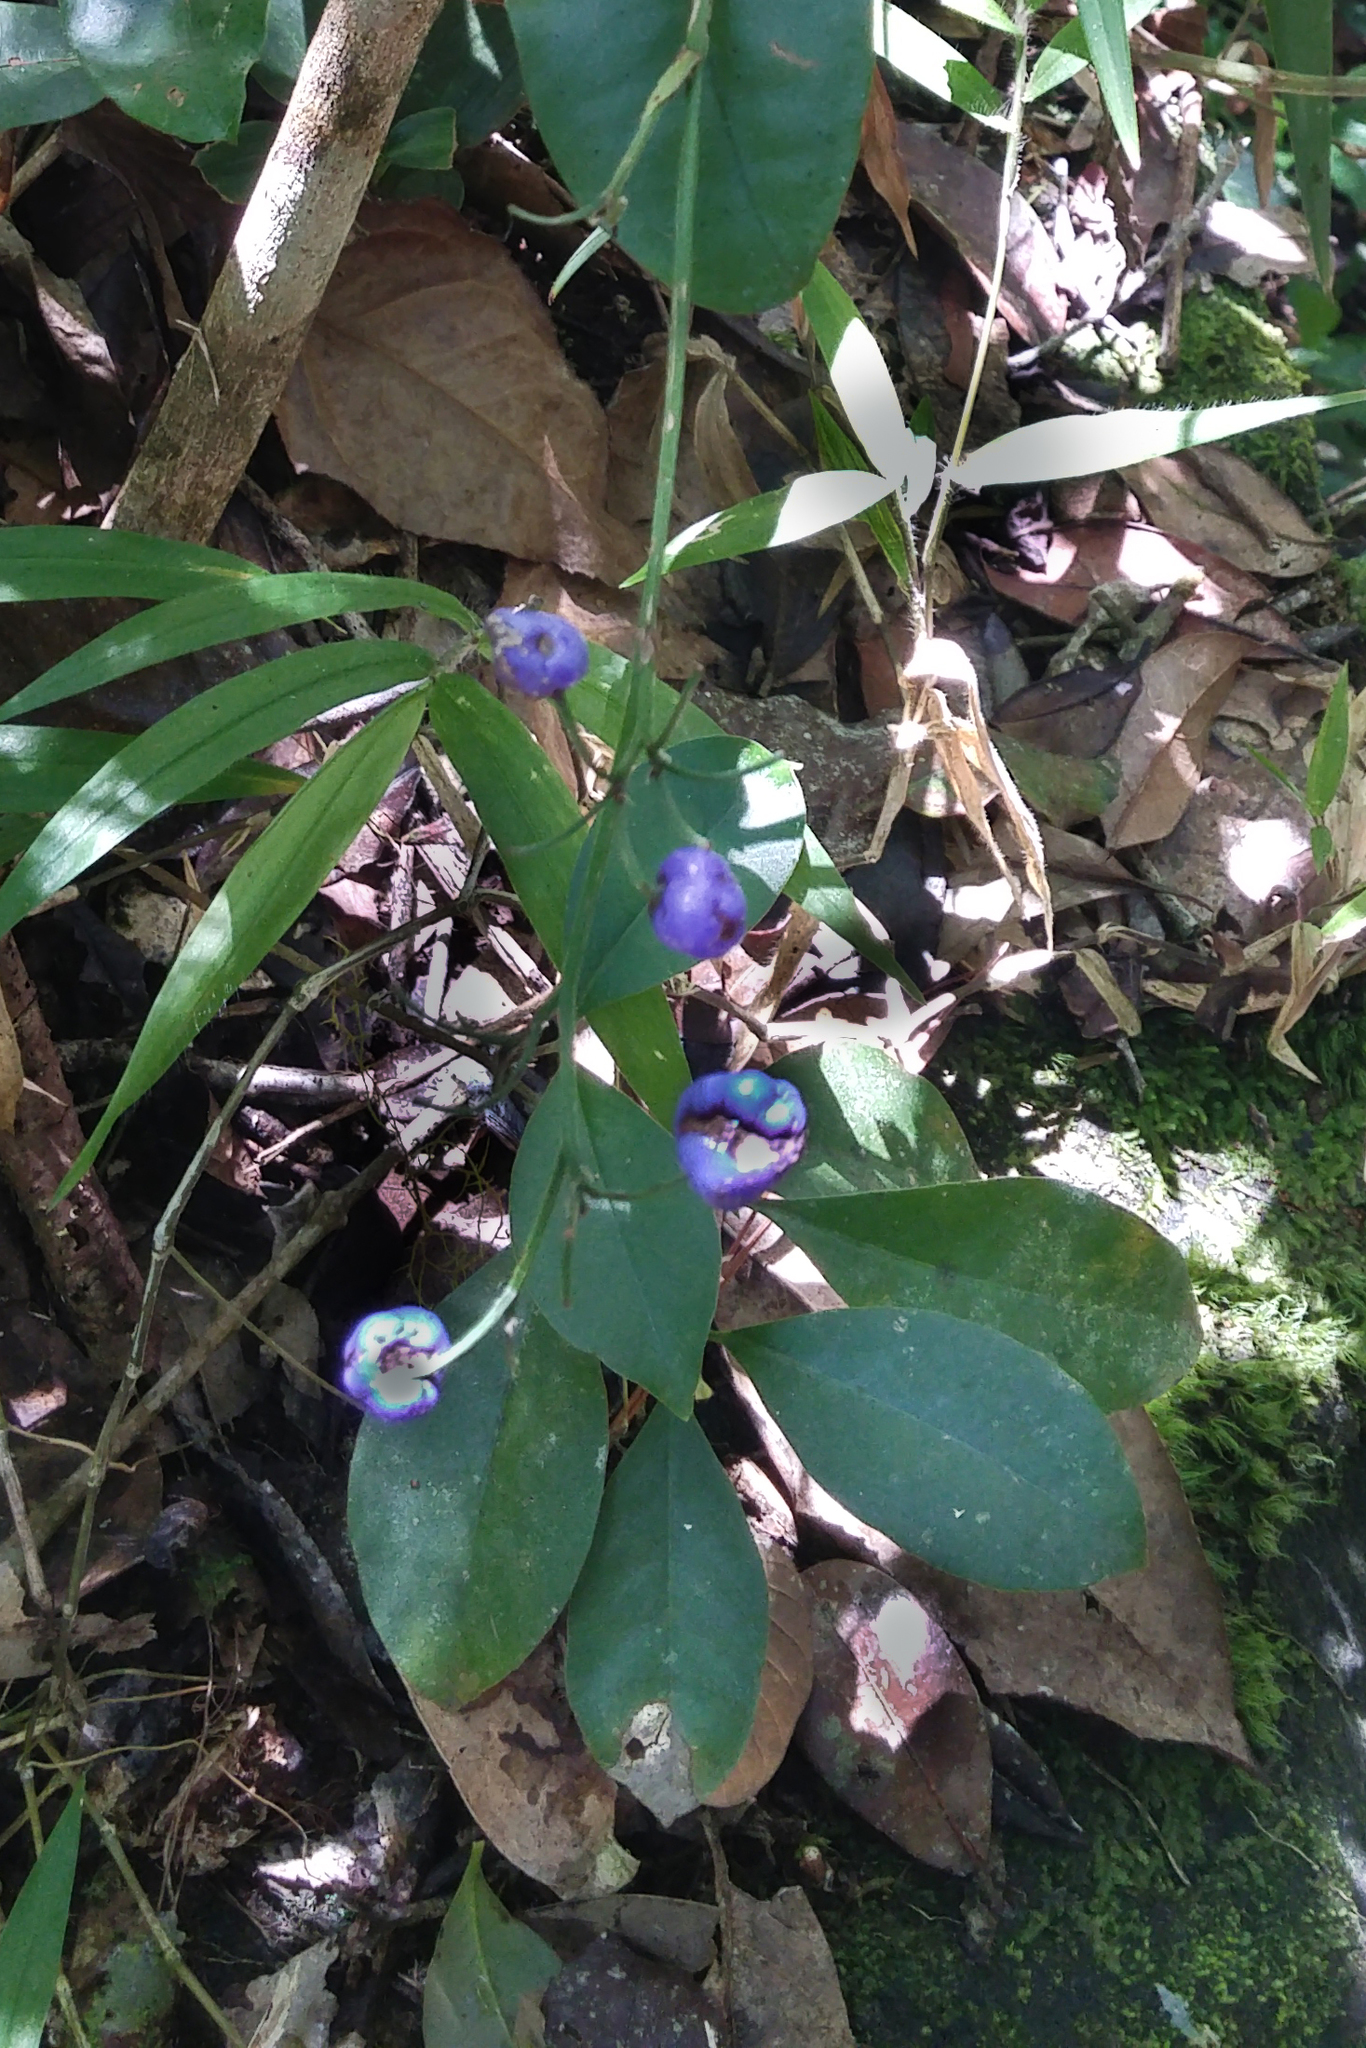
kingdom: Plantae
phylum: Tracheophyta
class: Liliopsida
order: Asparagales
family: Asphodelaceae
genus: Dianella
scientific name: Dianella ensifolia
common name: New zealand lilyplant
